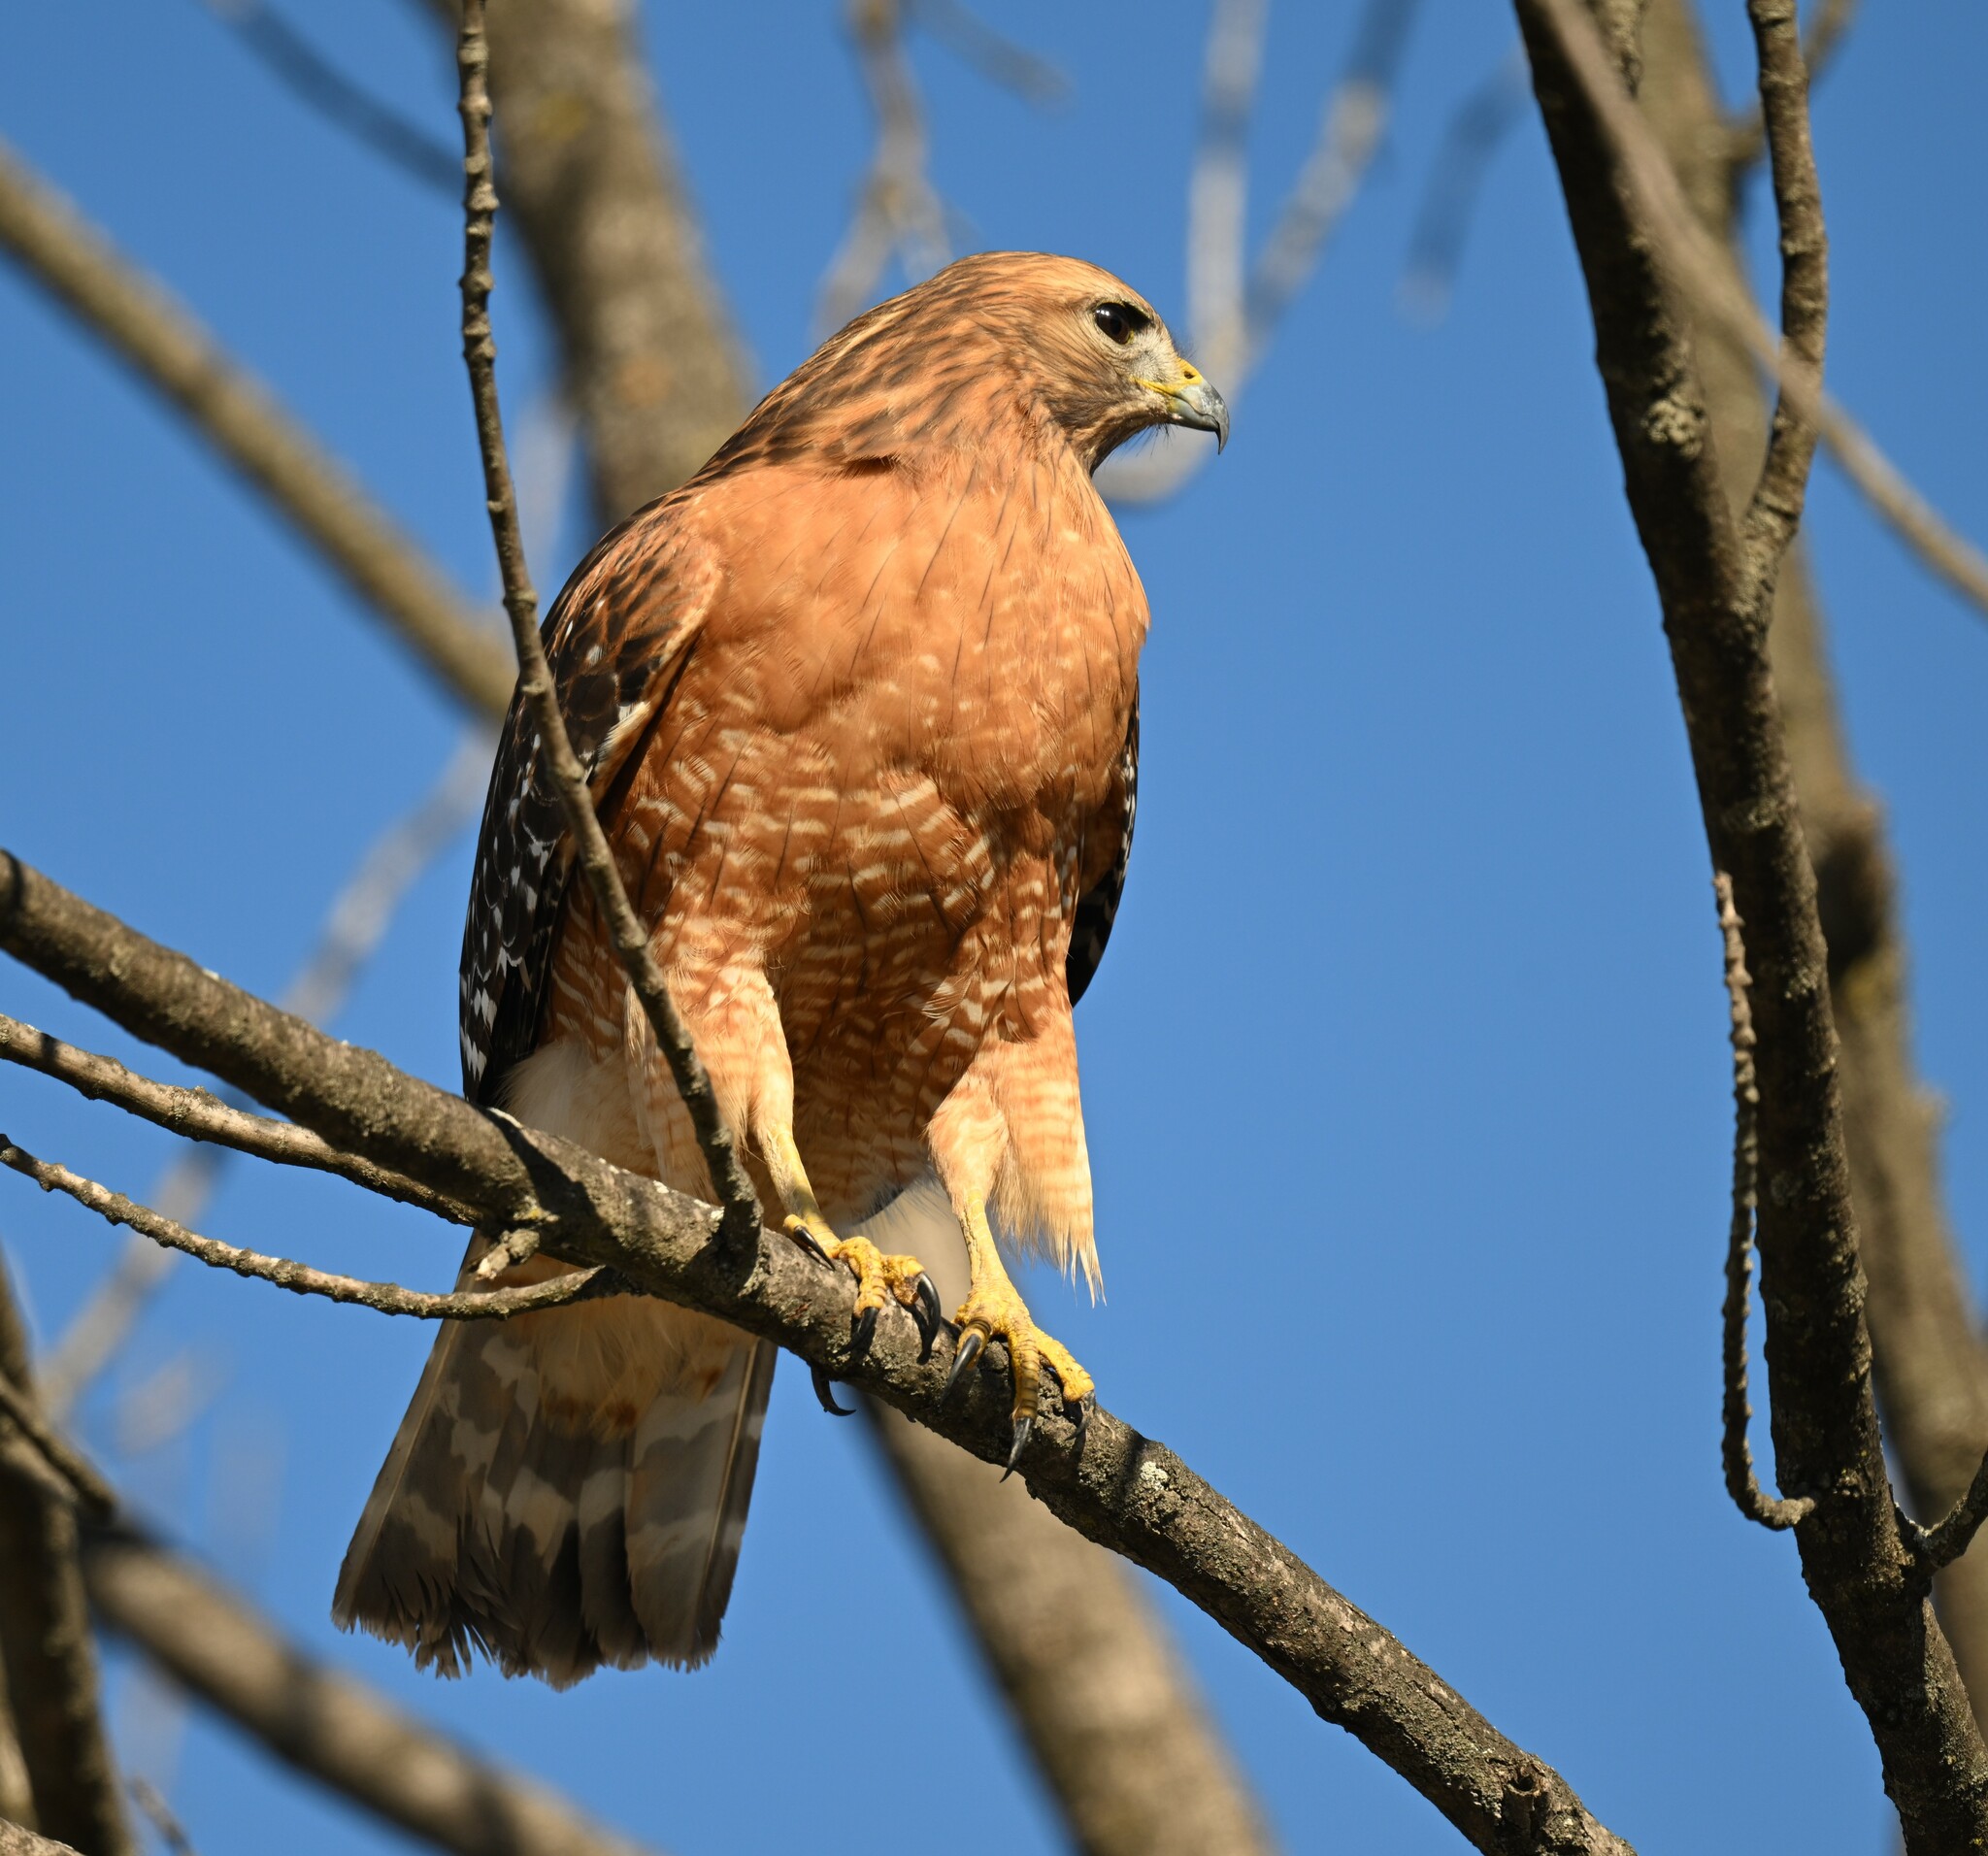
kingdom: Animalia
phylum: Chordata
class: Aves
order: Accipitriformes
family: Accipitridae
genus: Buteo
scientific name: Buteo lineatus
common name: Red-shouldered hawk
